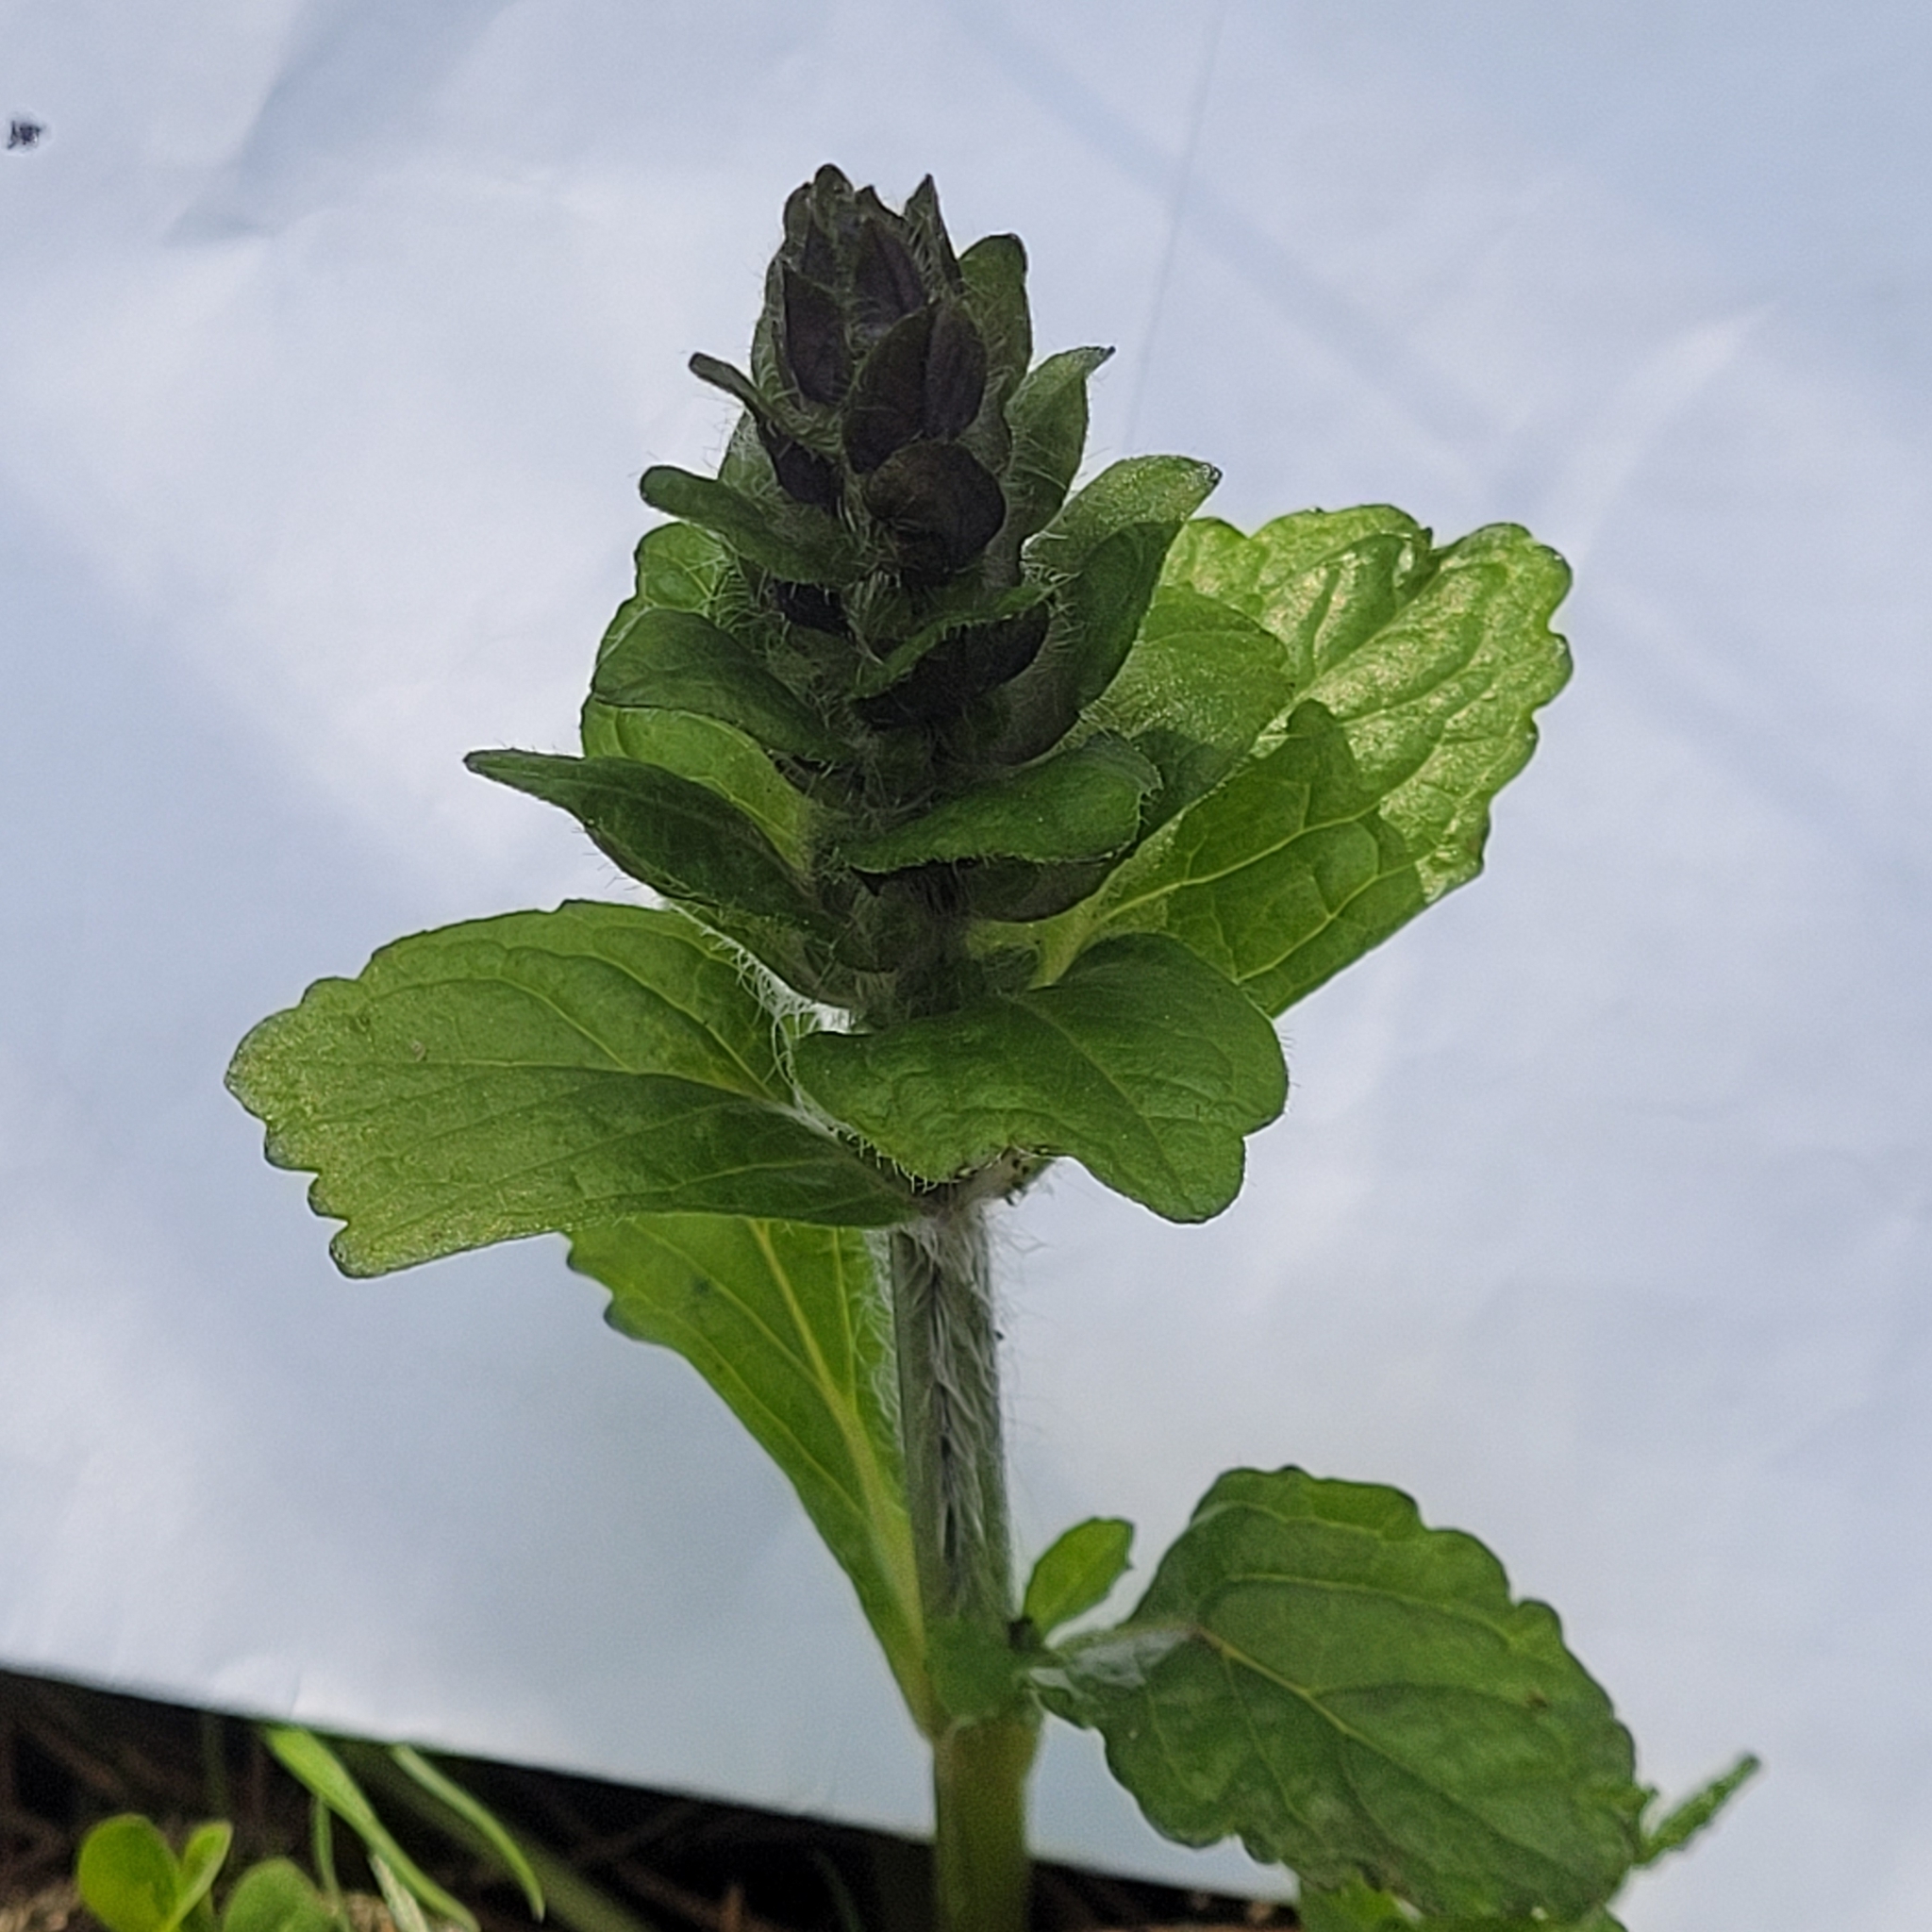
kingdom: Plantae
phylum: Tracheophyta
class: Magnoliopsida
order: Lamiales
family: Lamiaceae
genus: Ajuga
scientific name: Ajuga reptans
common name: Bugle
